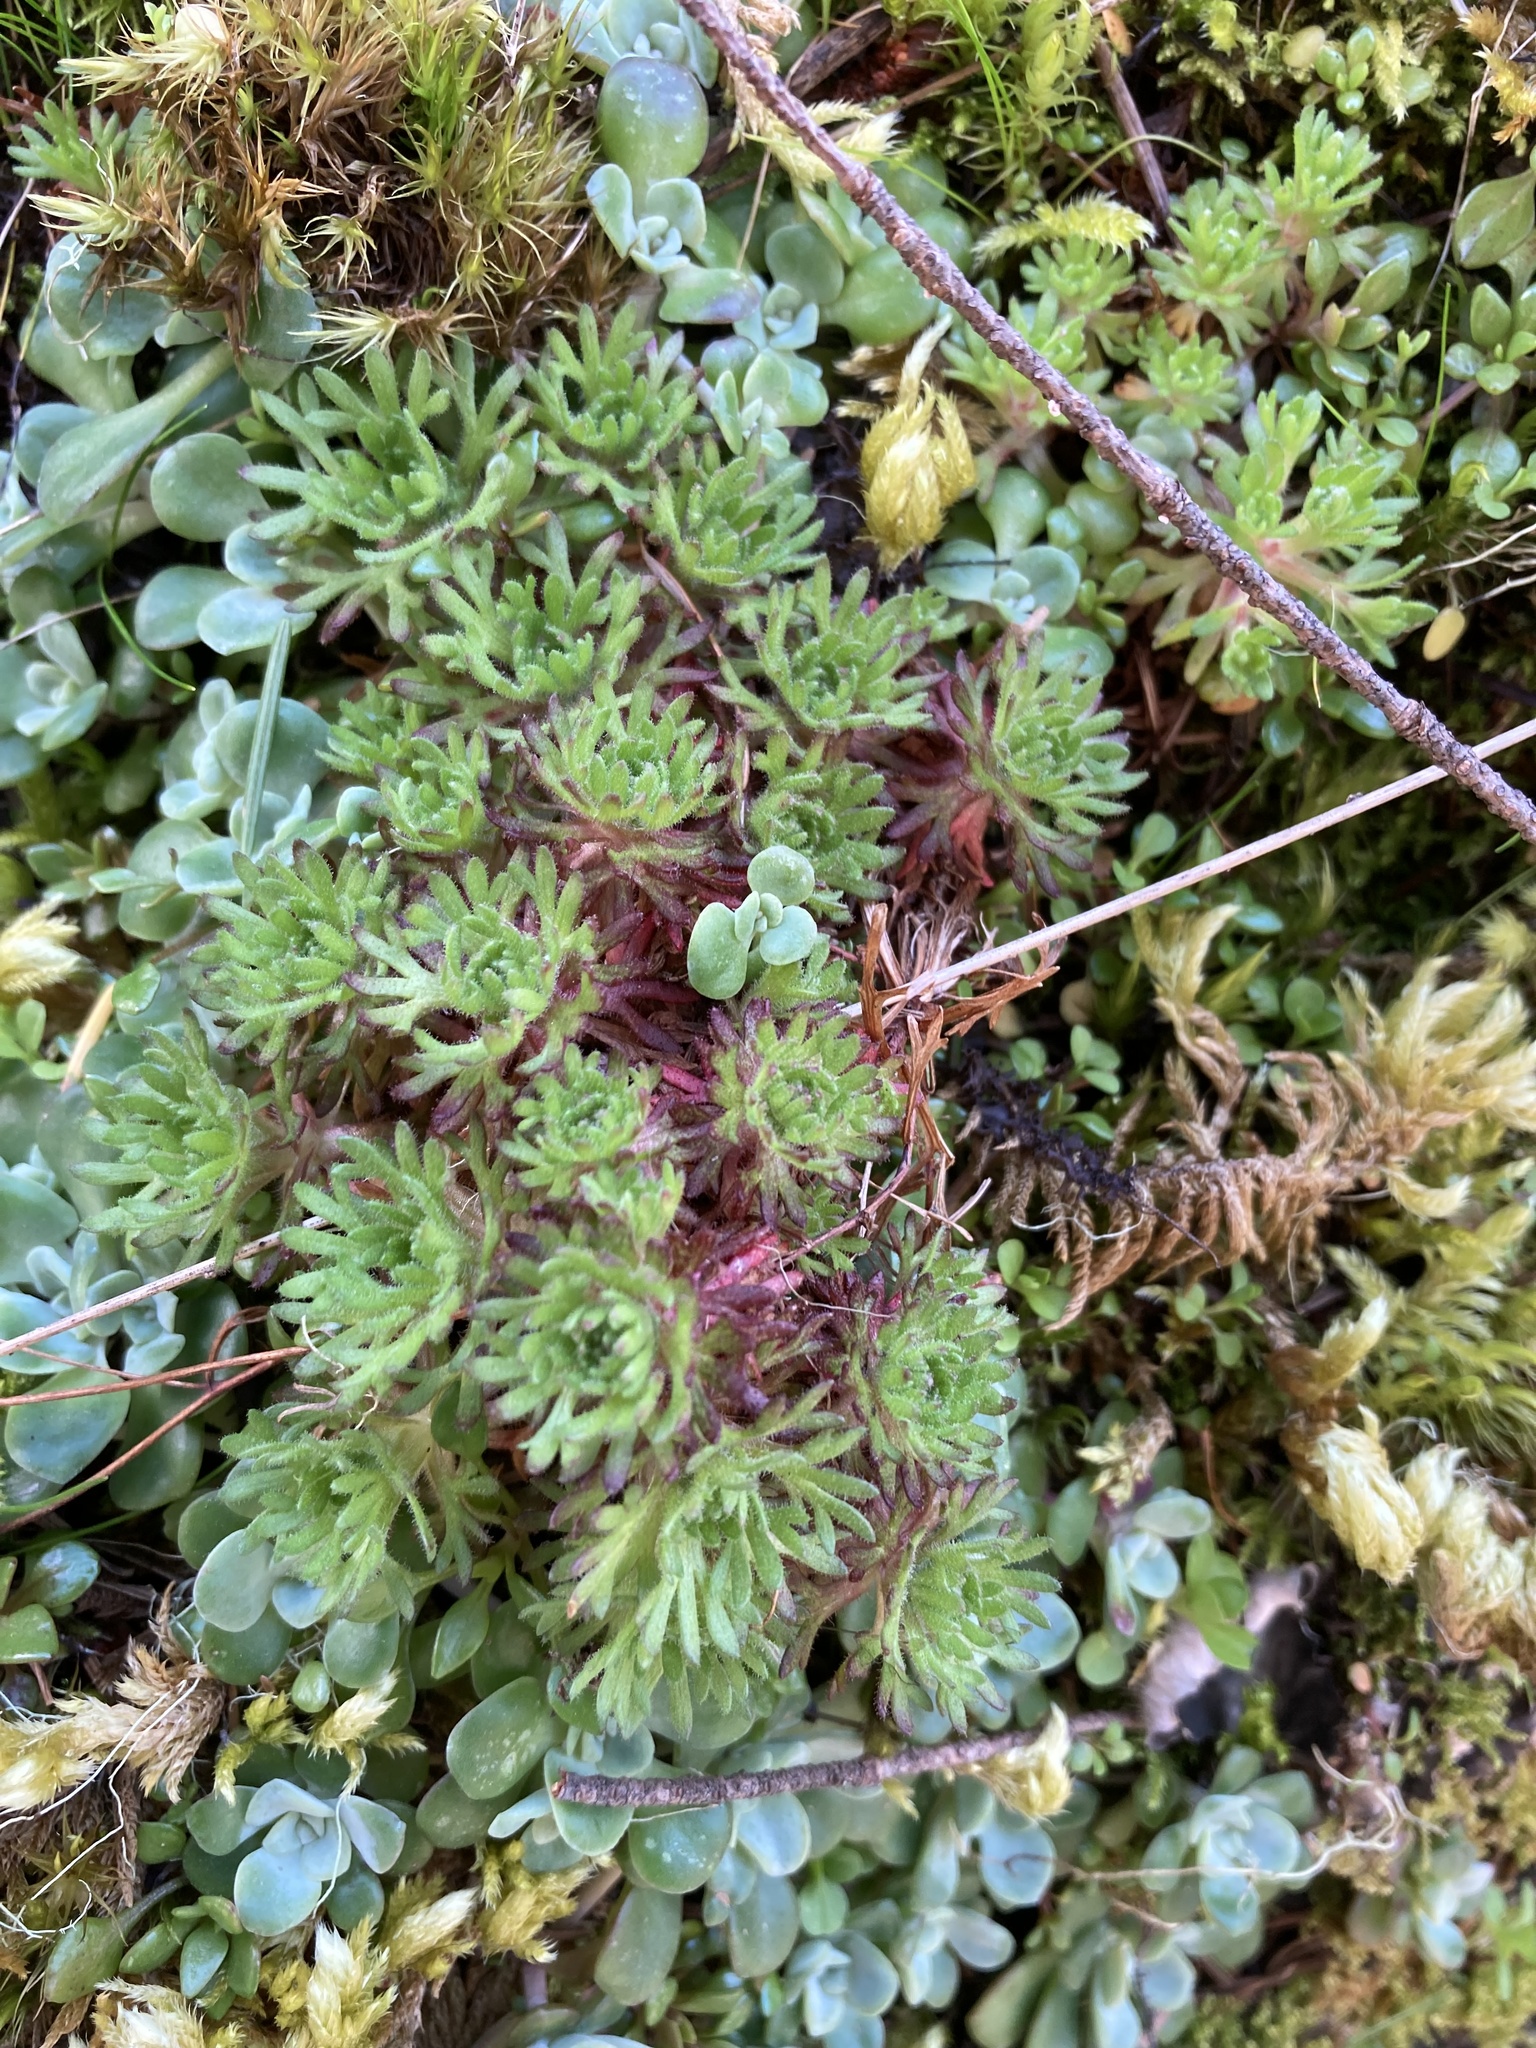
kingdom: Plantae
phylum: Tracheophyta
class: Magnoliopsida
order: Saxifragales
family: Saxifragaceae
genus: Saxifraga
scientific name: Saxifraga cespitosa
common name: Tufted saxifrage
